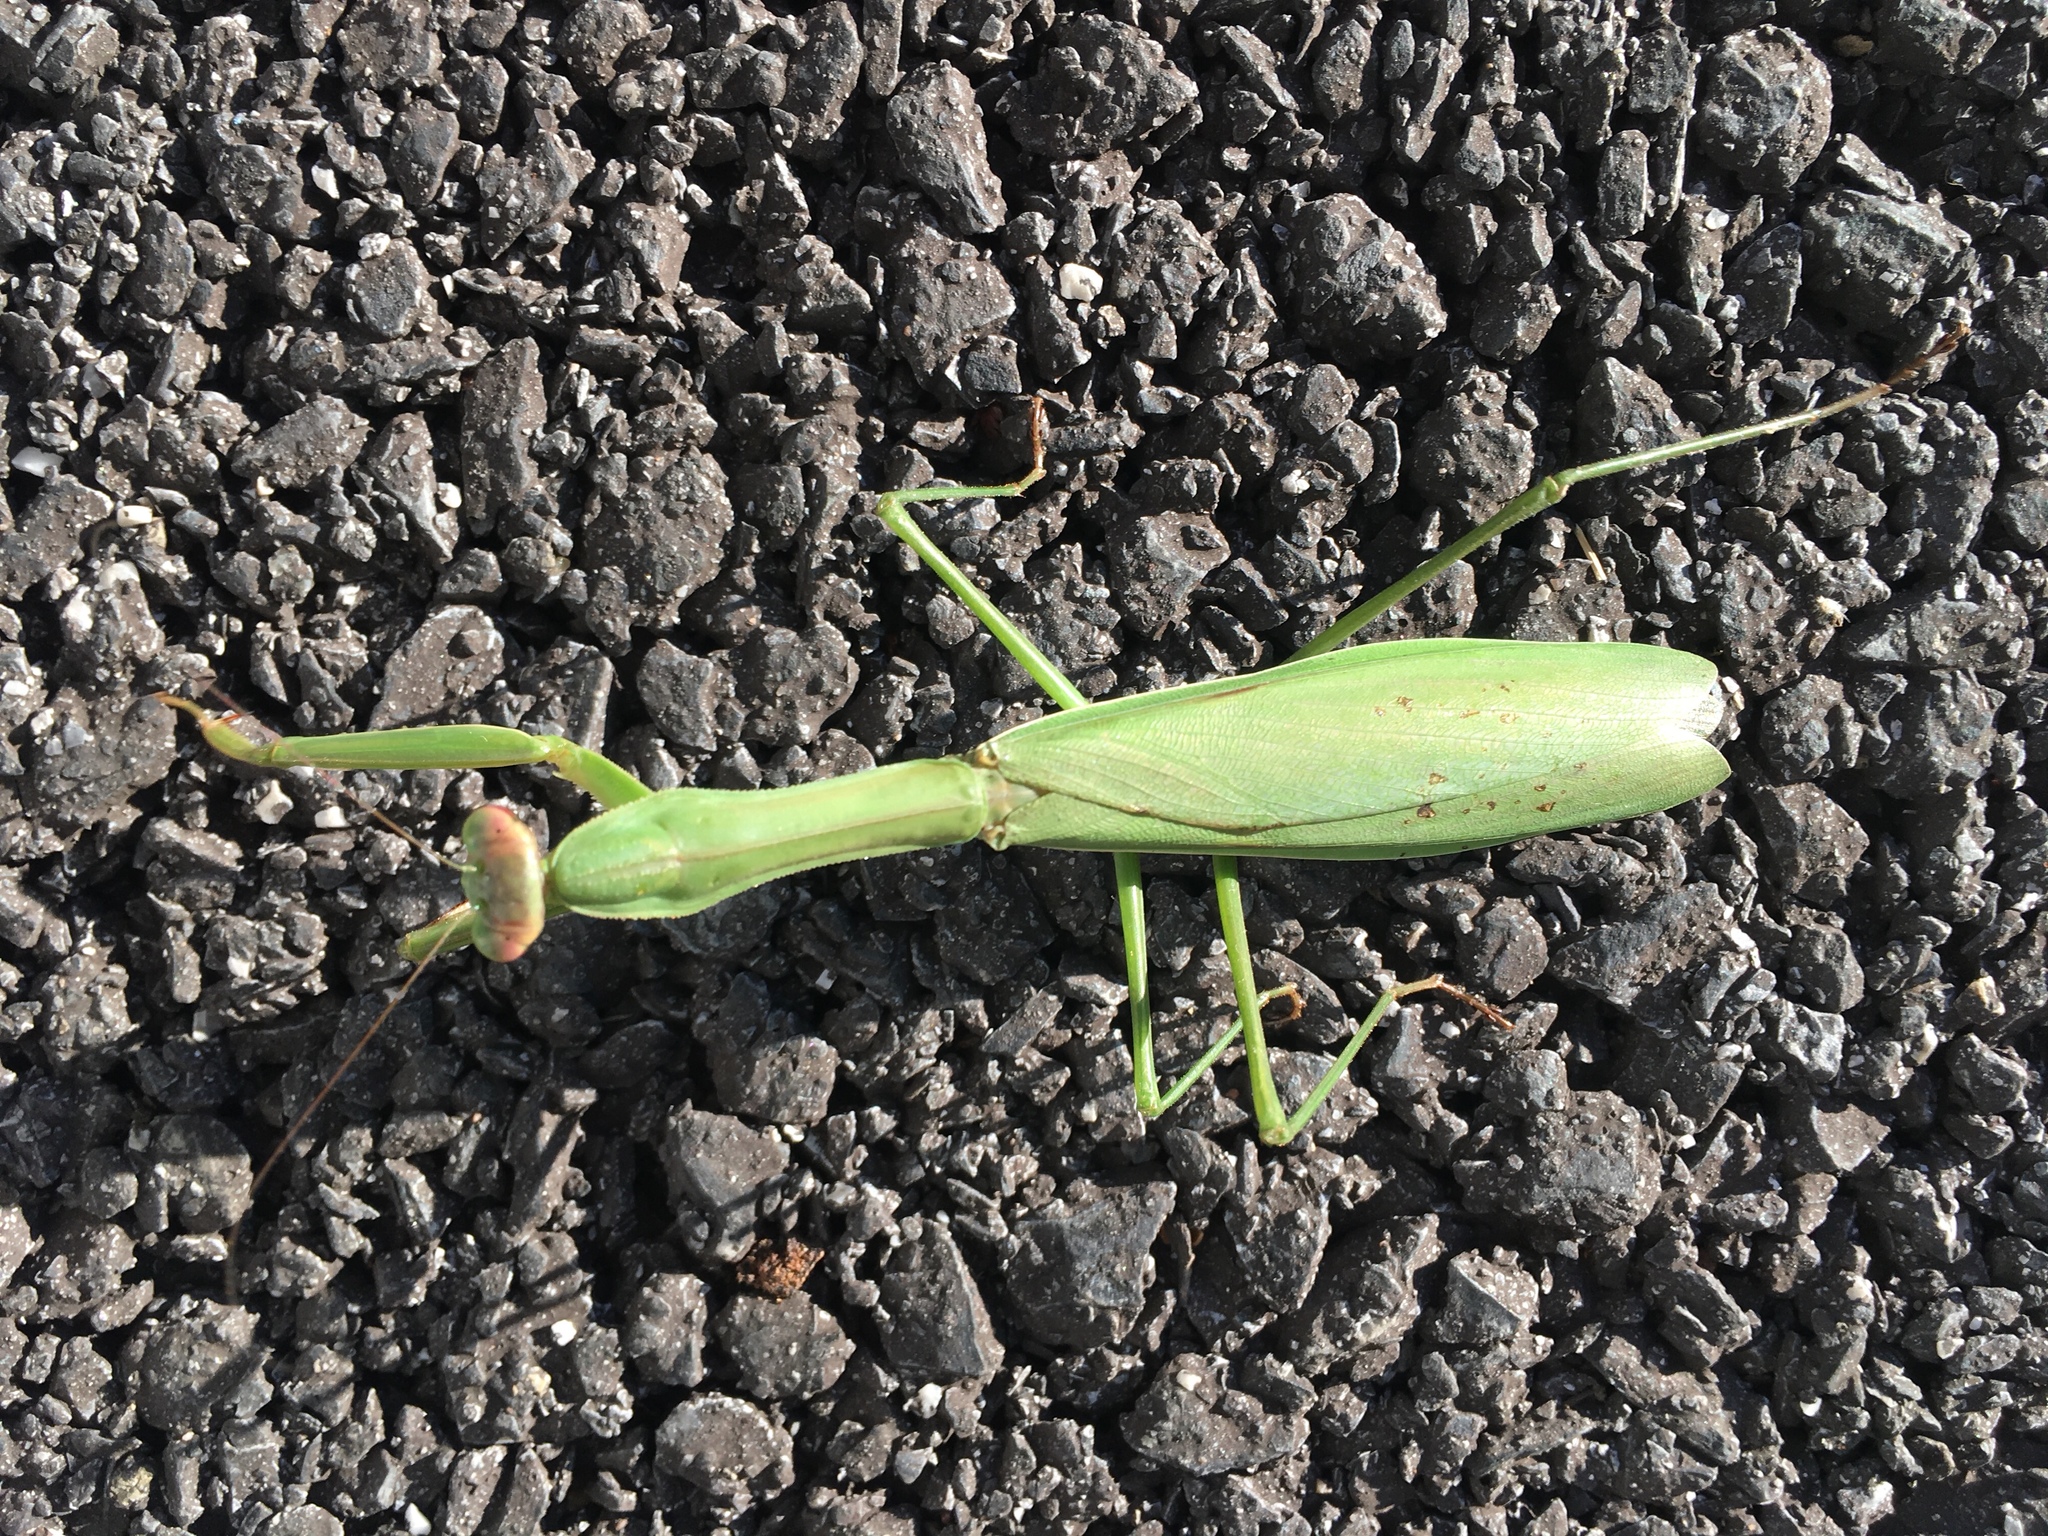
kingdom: Animalia
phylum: Arthropoda
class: Insecta
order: Mantodea
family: Mantidae
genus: Tenodera
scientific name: Tenodera sinensis
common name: Chinese mantis
